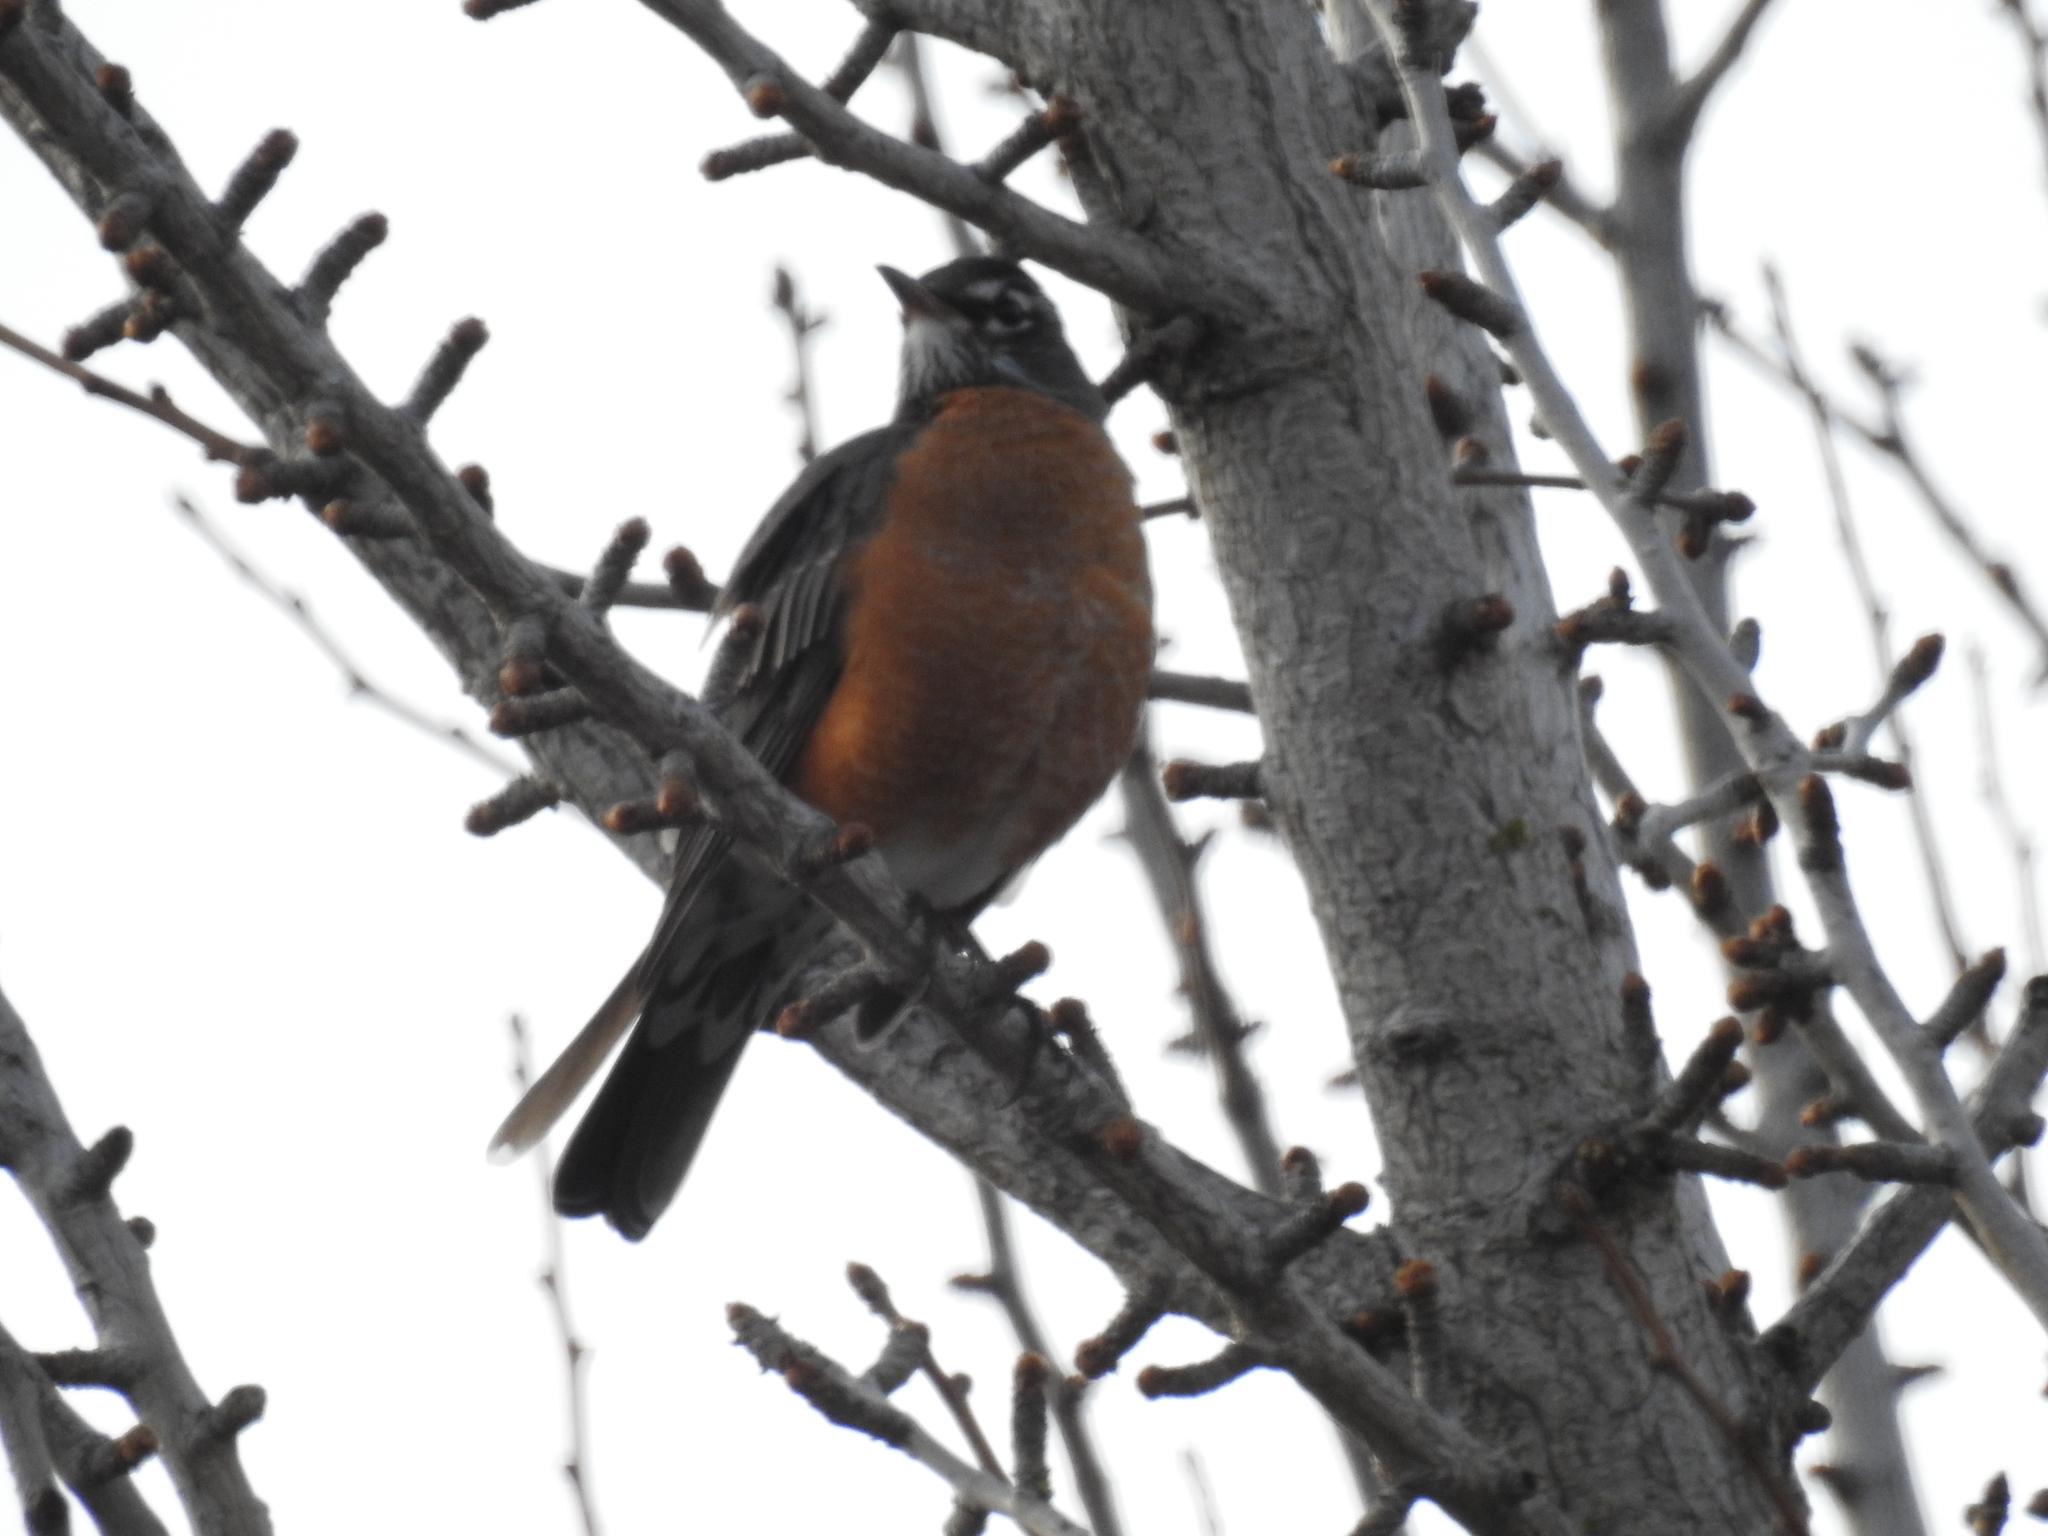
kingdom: Animalia
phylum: Chordata
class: Aves
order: Passeriformes
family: Turdidae
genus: Turdus
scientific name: Turdus migratorius
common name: American robin
